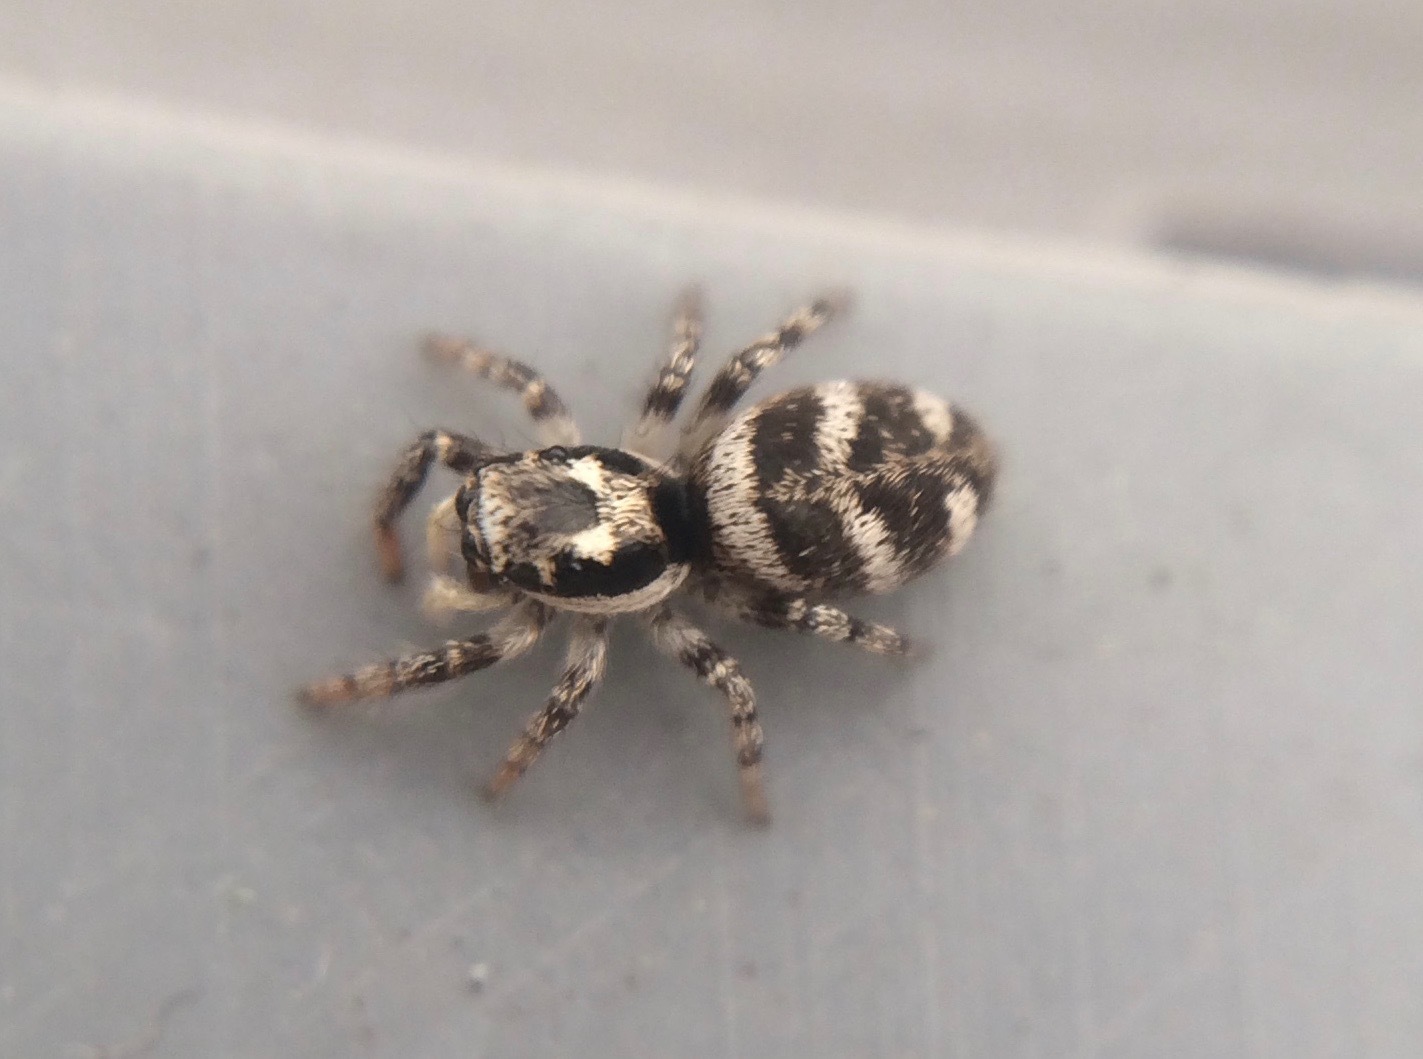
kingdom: Animalia
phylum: Arthropoda
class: Arachnida
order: Araneae
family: Salticidae
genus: Salticus
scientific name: Salticus scenicus
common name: Zebra jumper
